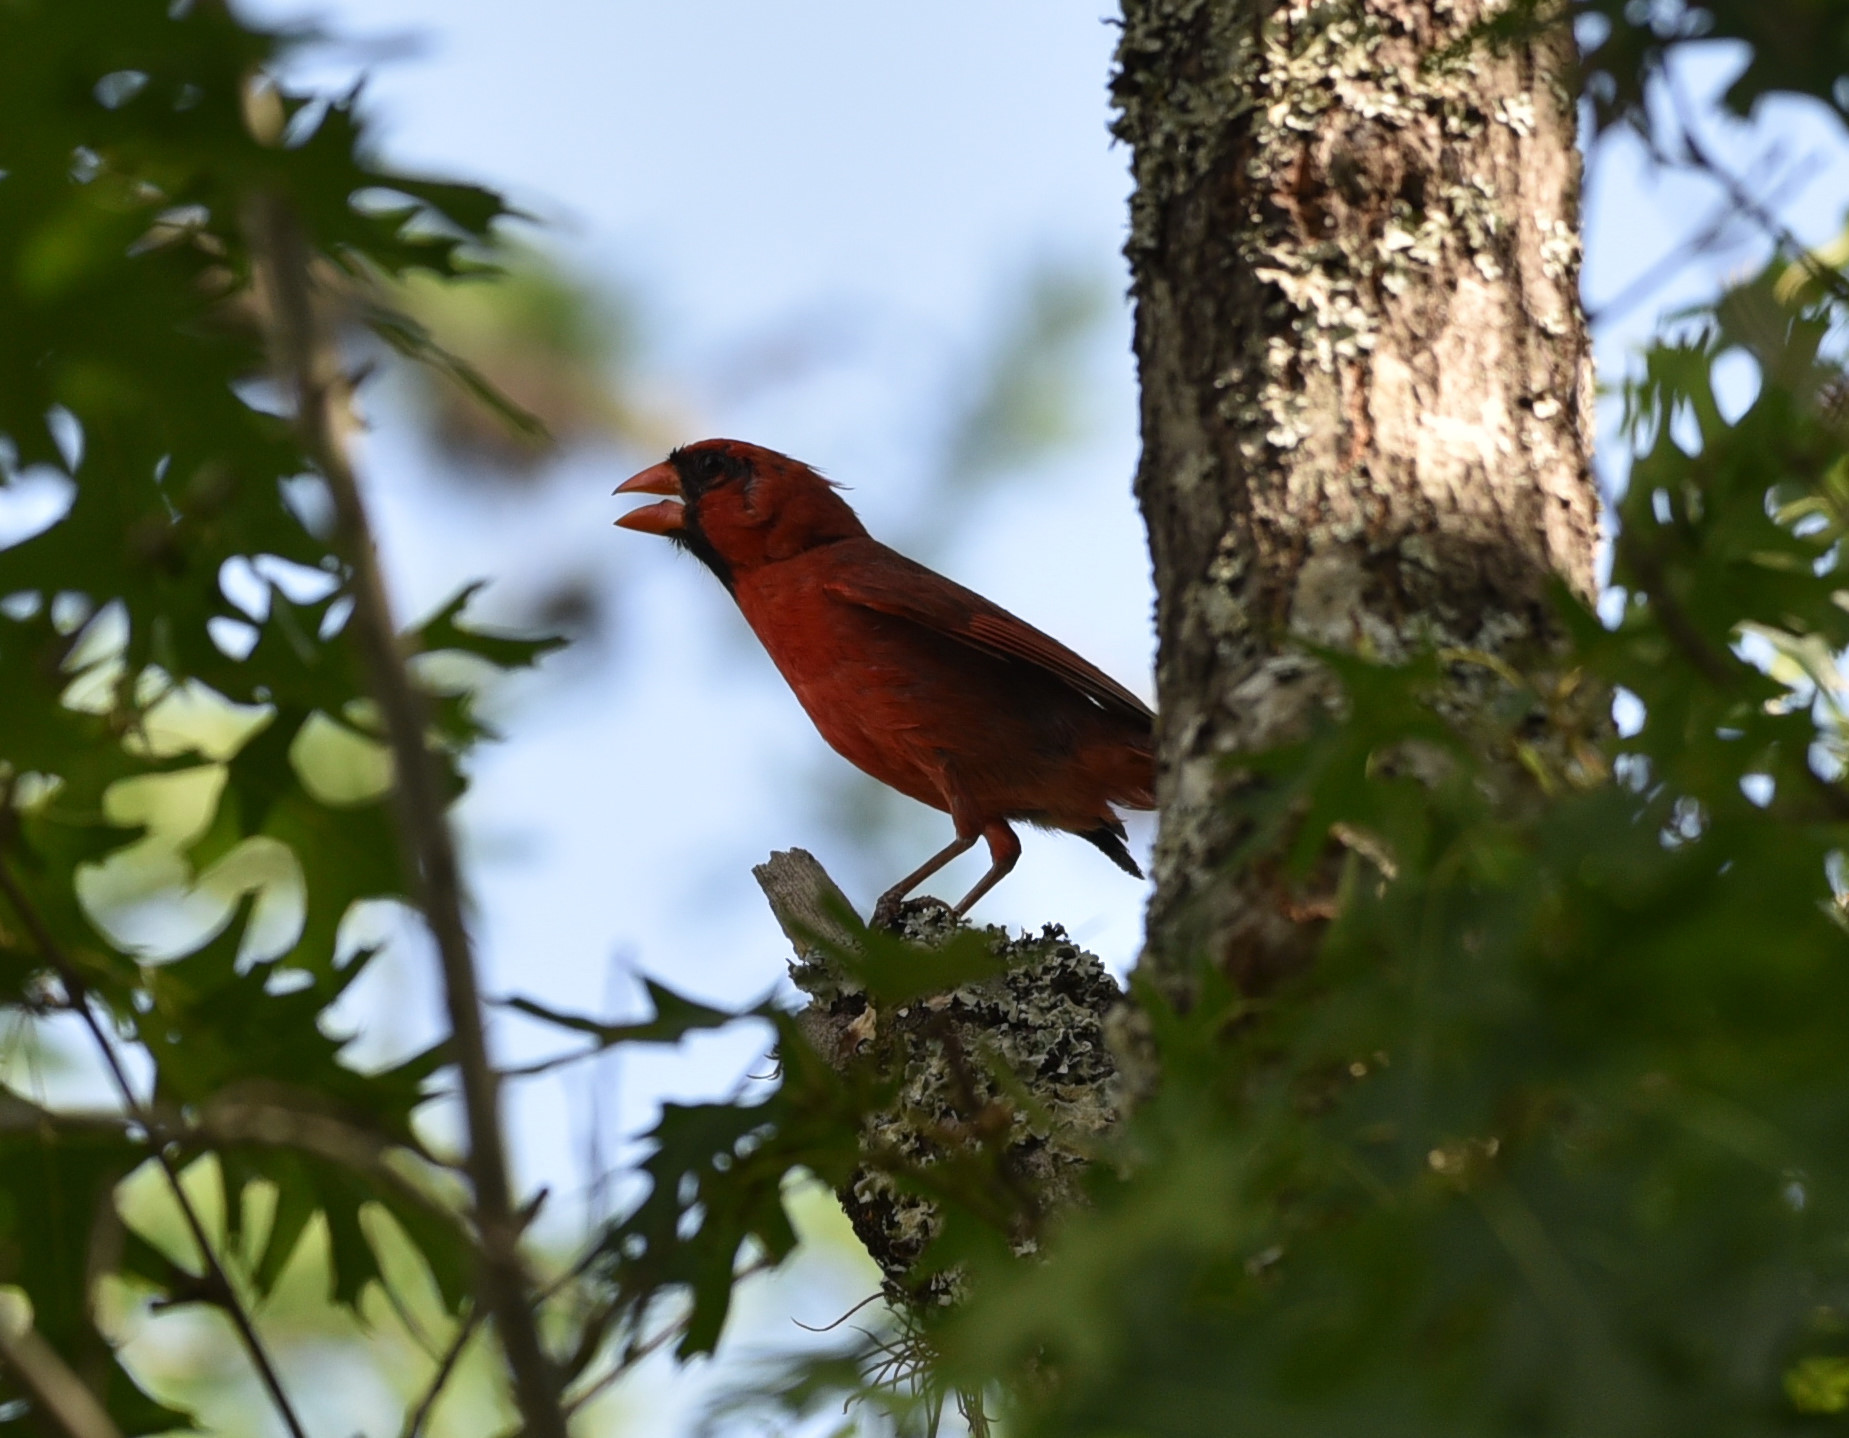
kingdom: Animalia
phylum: Chordata
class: Aves
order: Passeriformes
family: Cardinalidae
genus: Cardinalis
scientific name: Cardinalis cardinalis
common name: Northern cardinal
